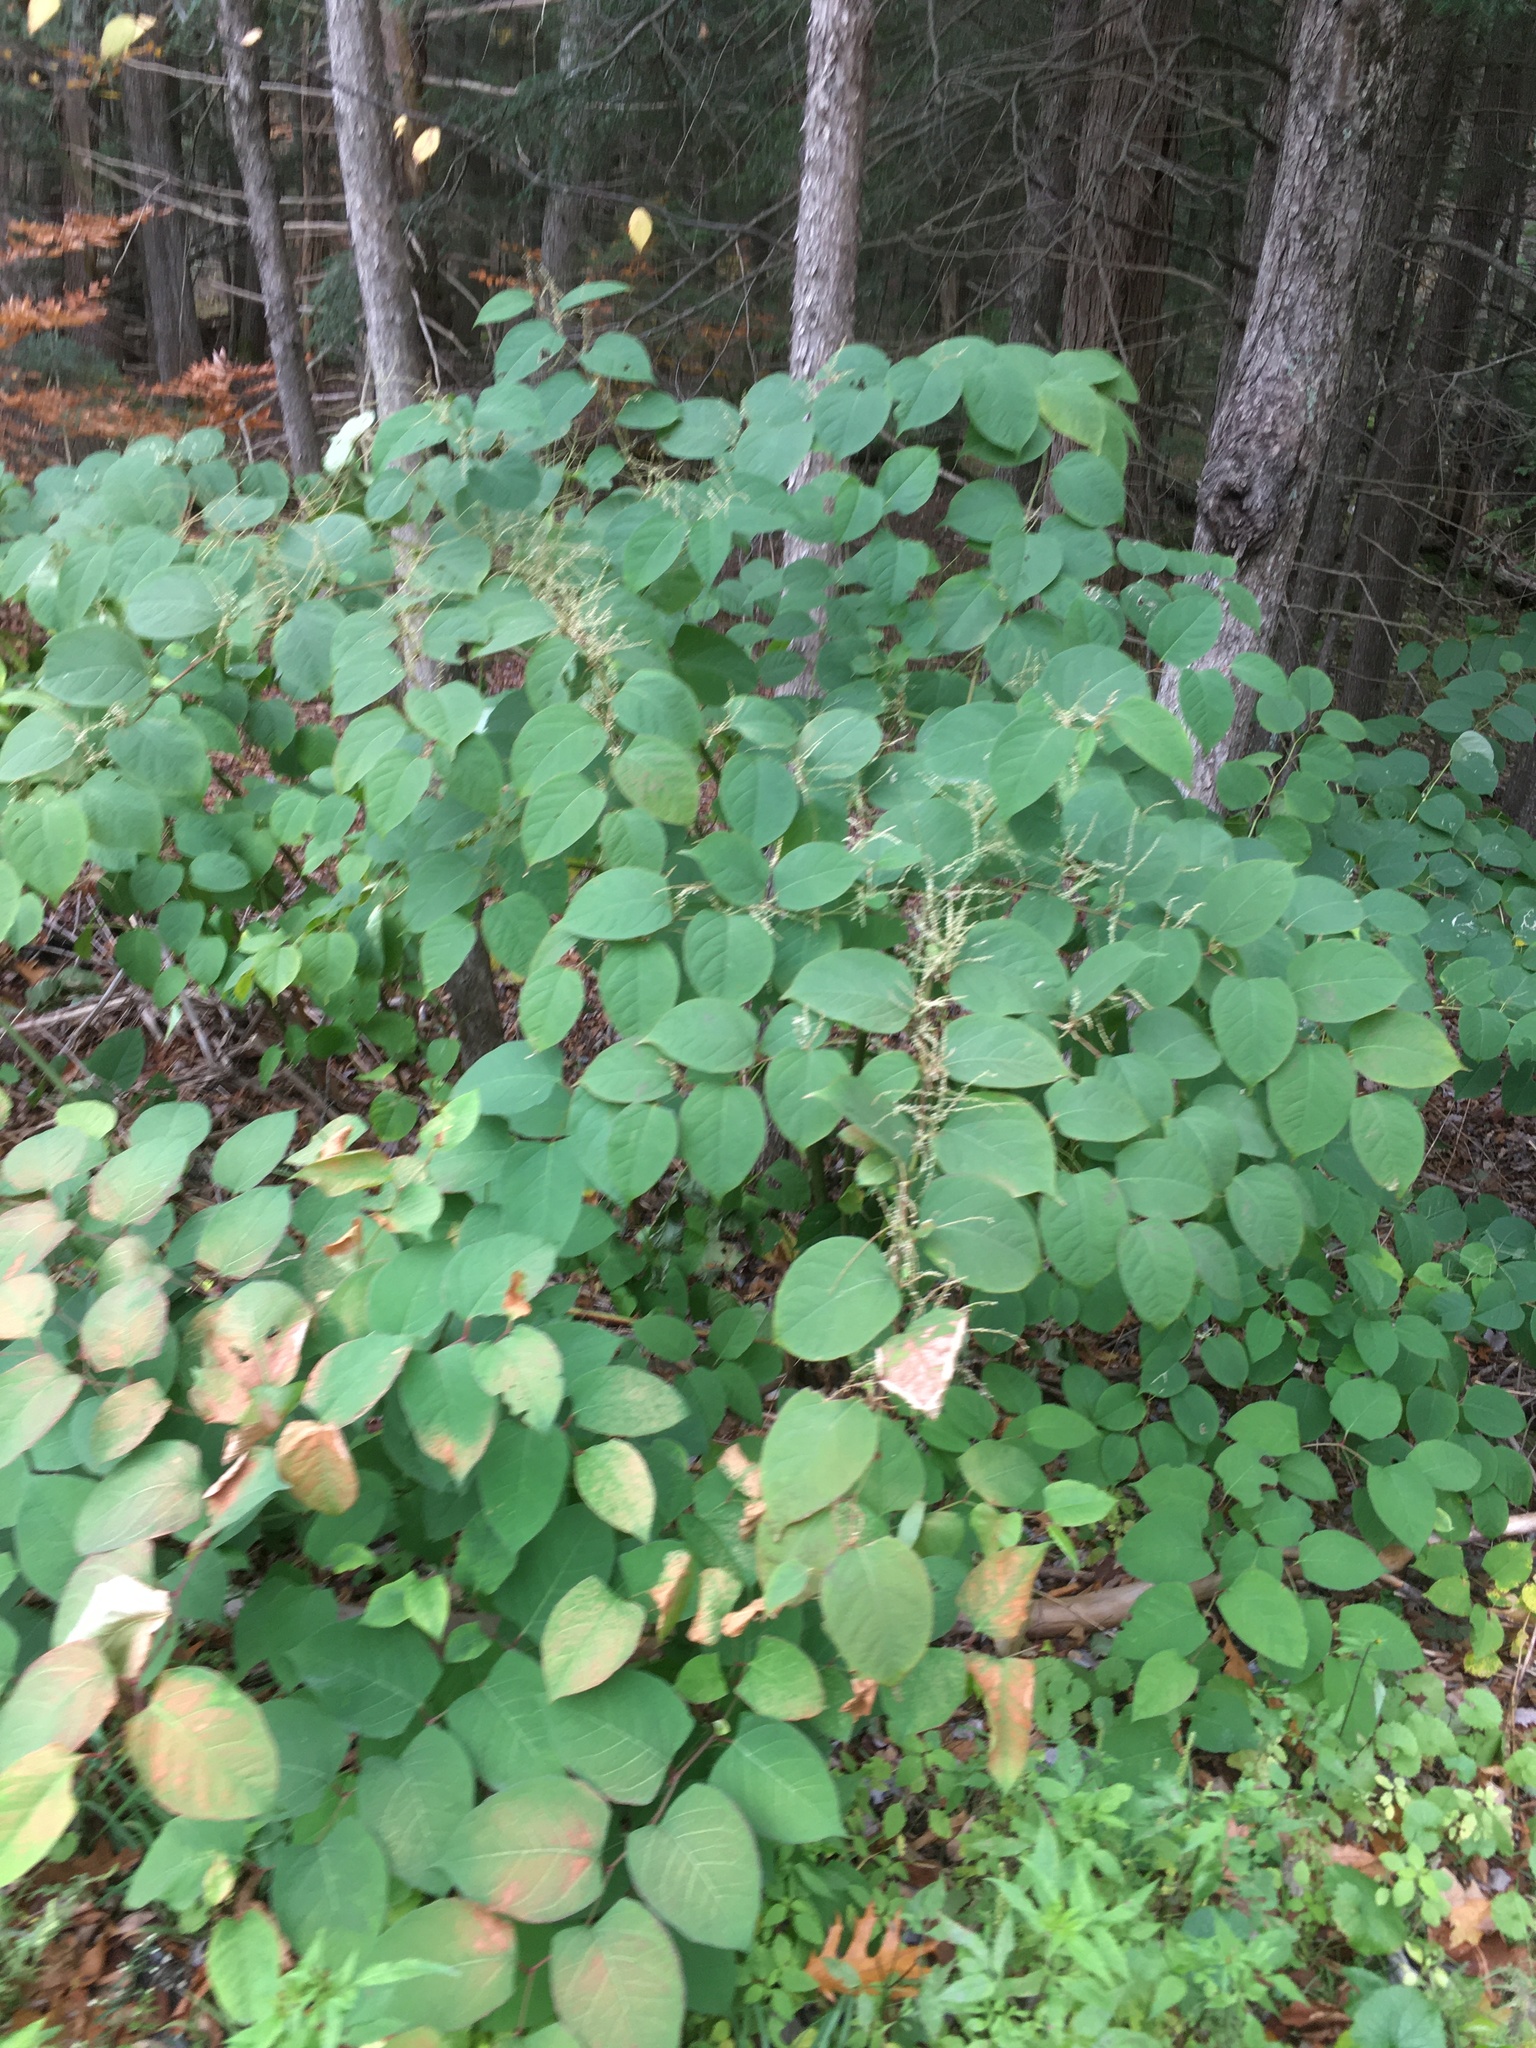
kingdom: Plantae
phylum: Tracheophyta
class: Magnoliopsida
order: Caryophyllales
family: Polygonaceae
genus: Reynoutria
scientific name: Reynoutria japonica
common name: Japanese knotweed
